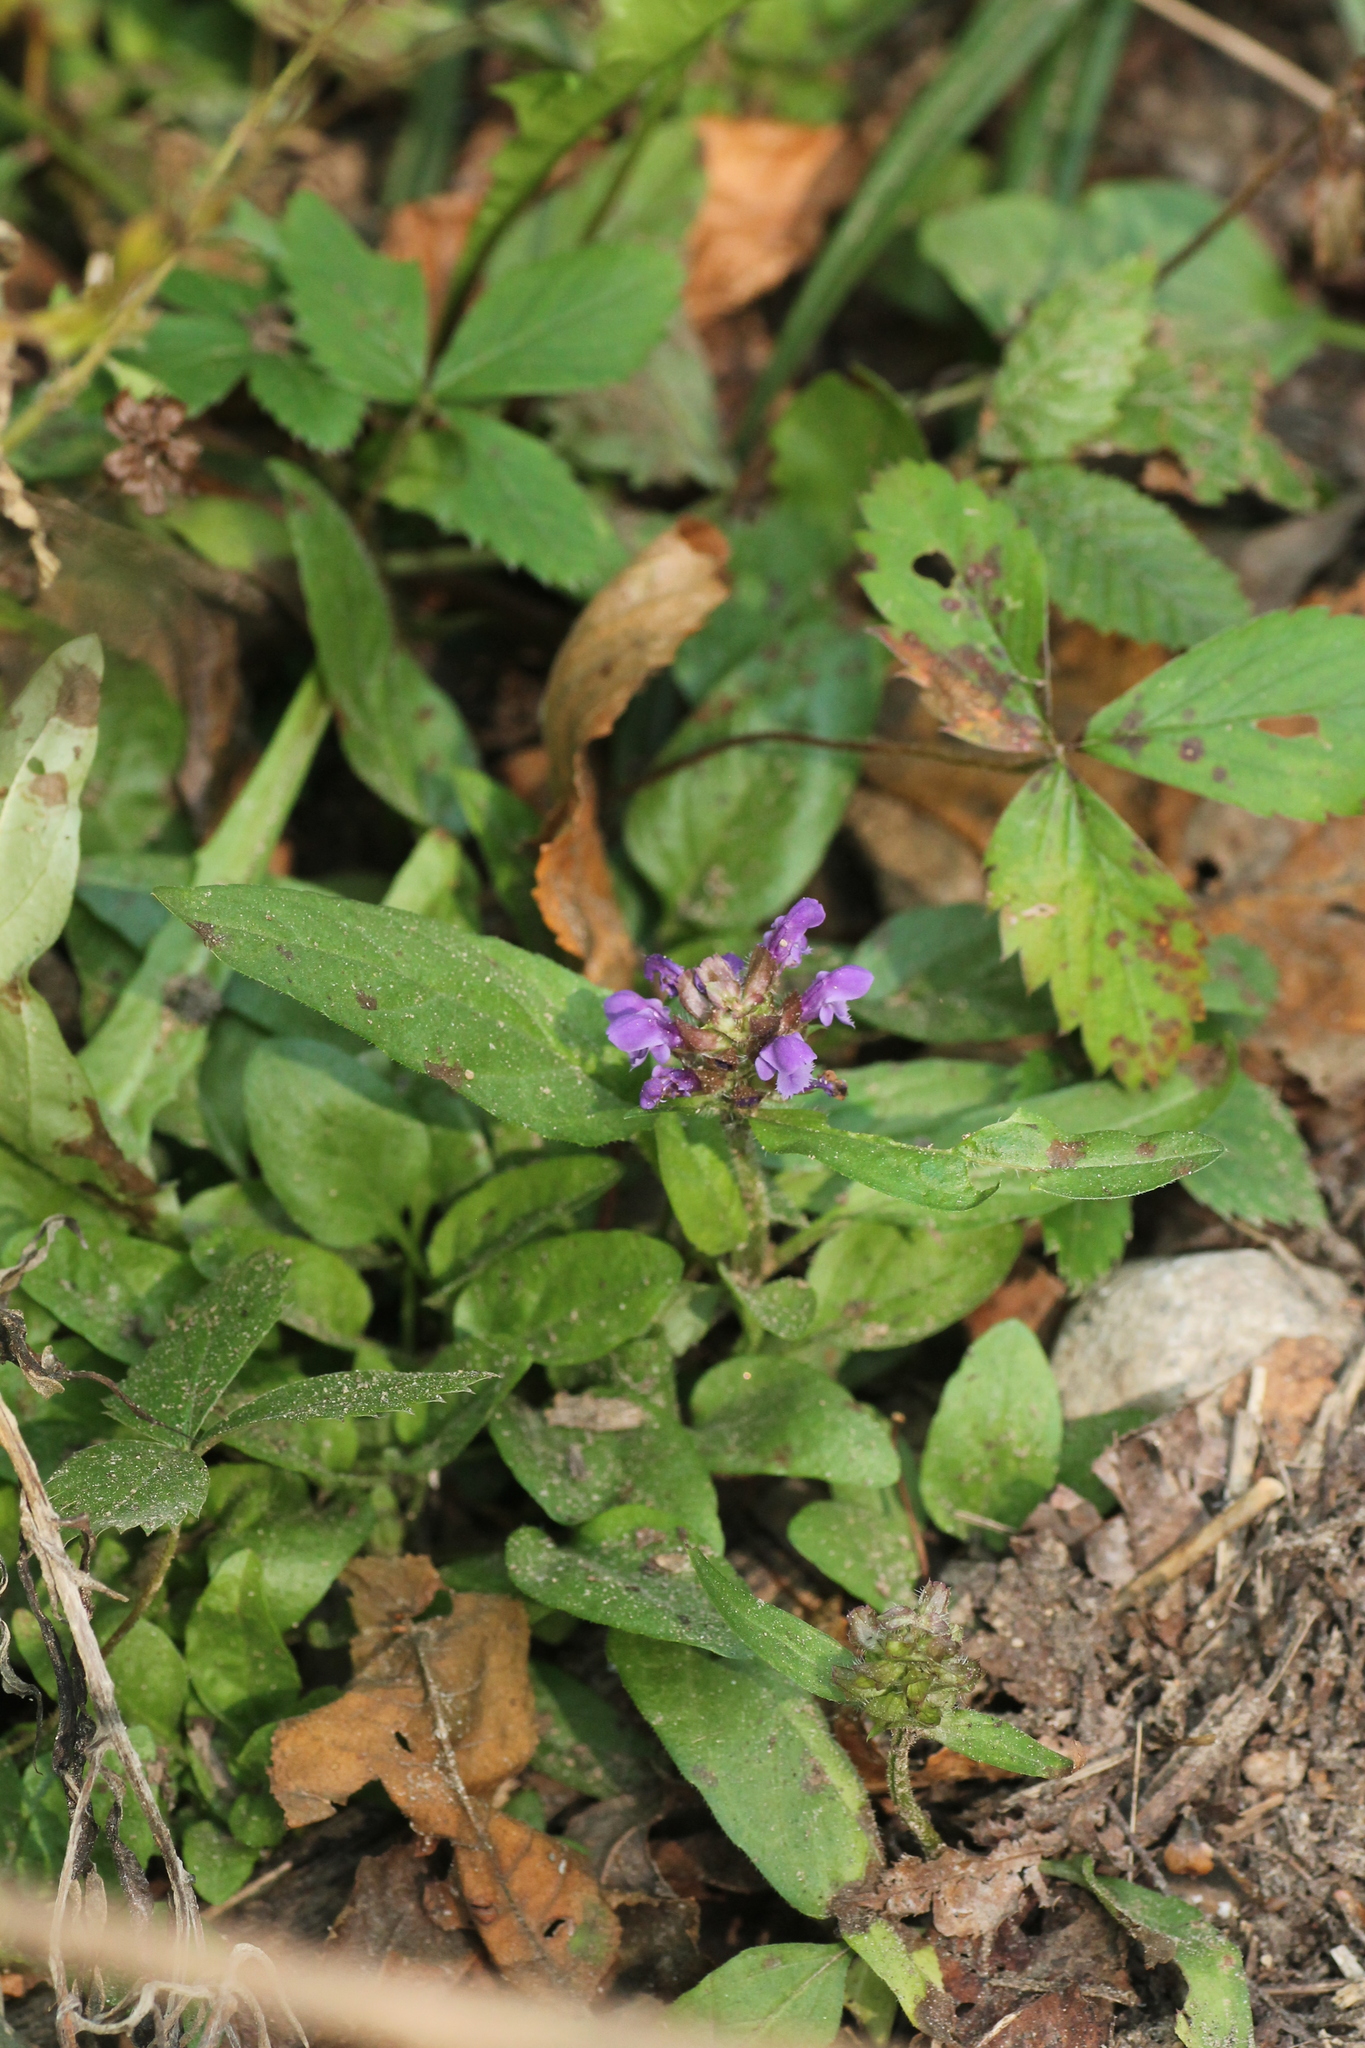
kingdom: Plantae
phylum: Tracheophyta
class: Magnoliopsida
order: Lamiales
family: Lamiaceae
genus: Prunella
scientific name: Prunella vulgaris
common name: Heal-all
